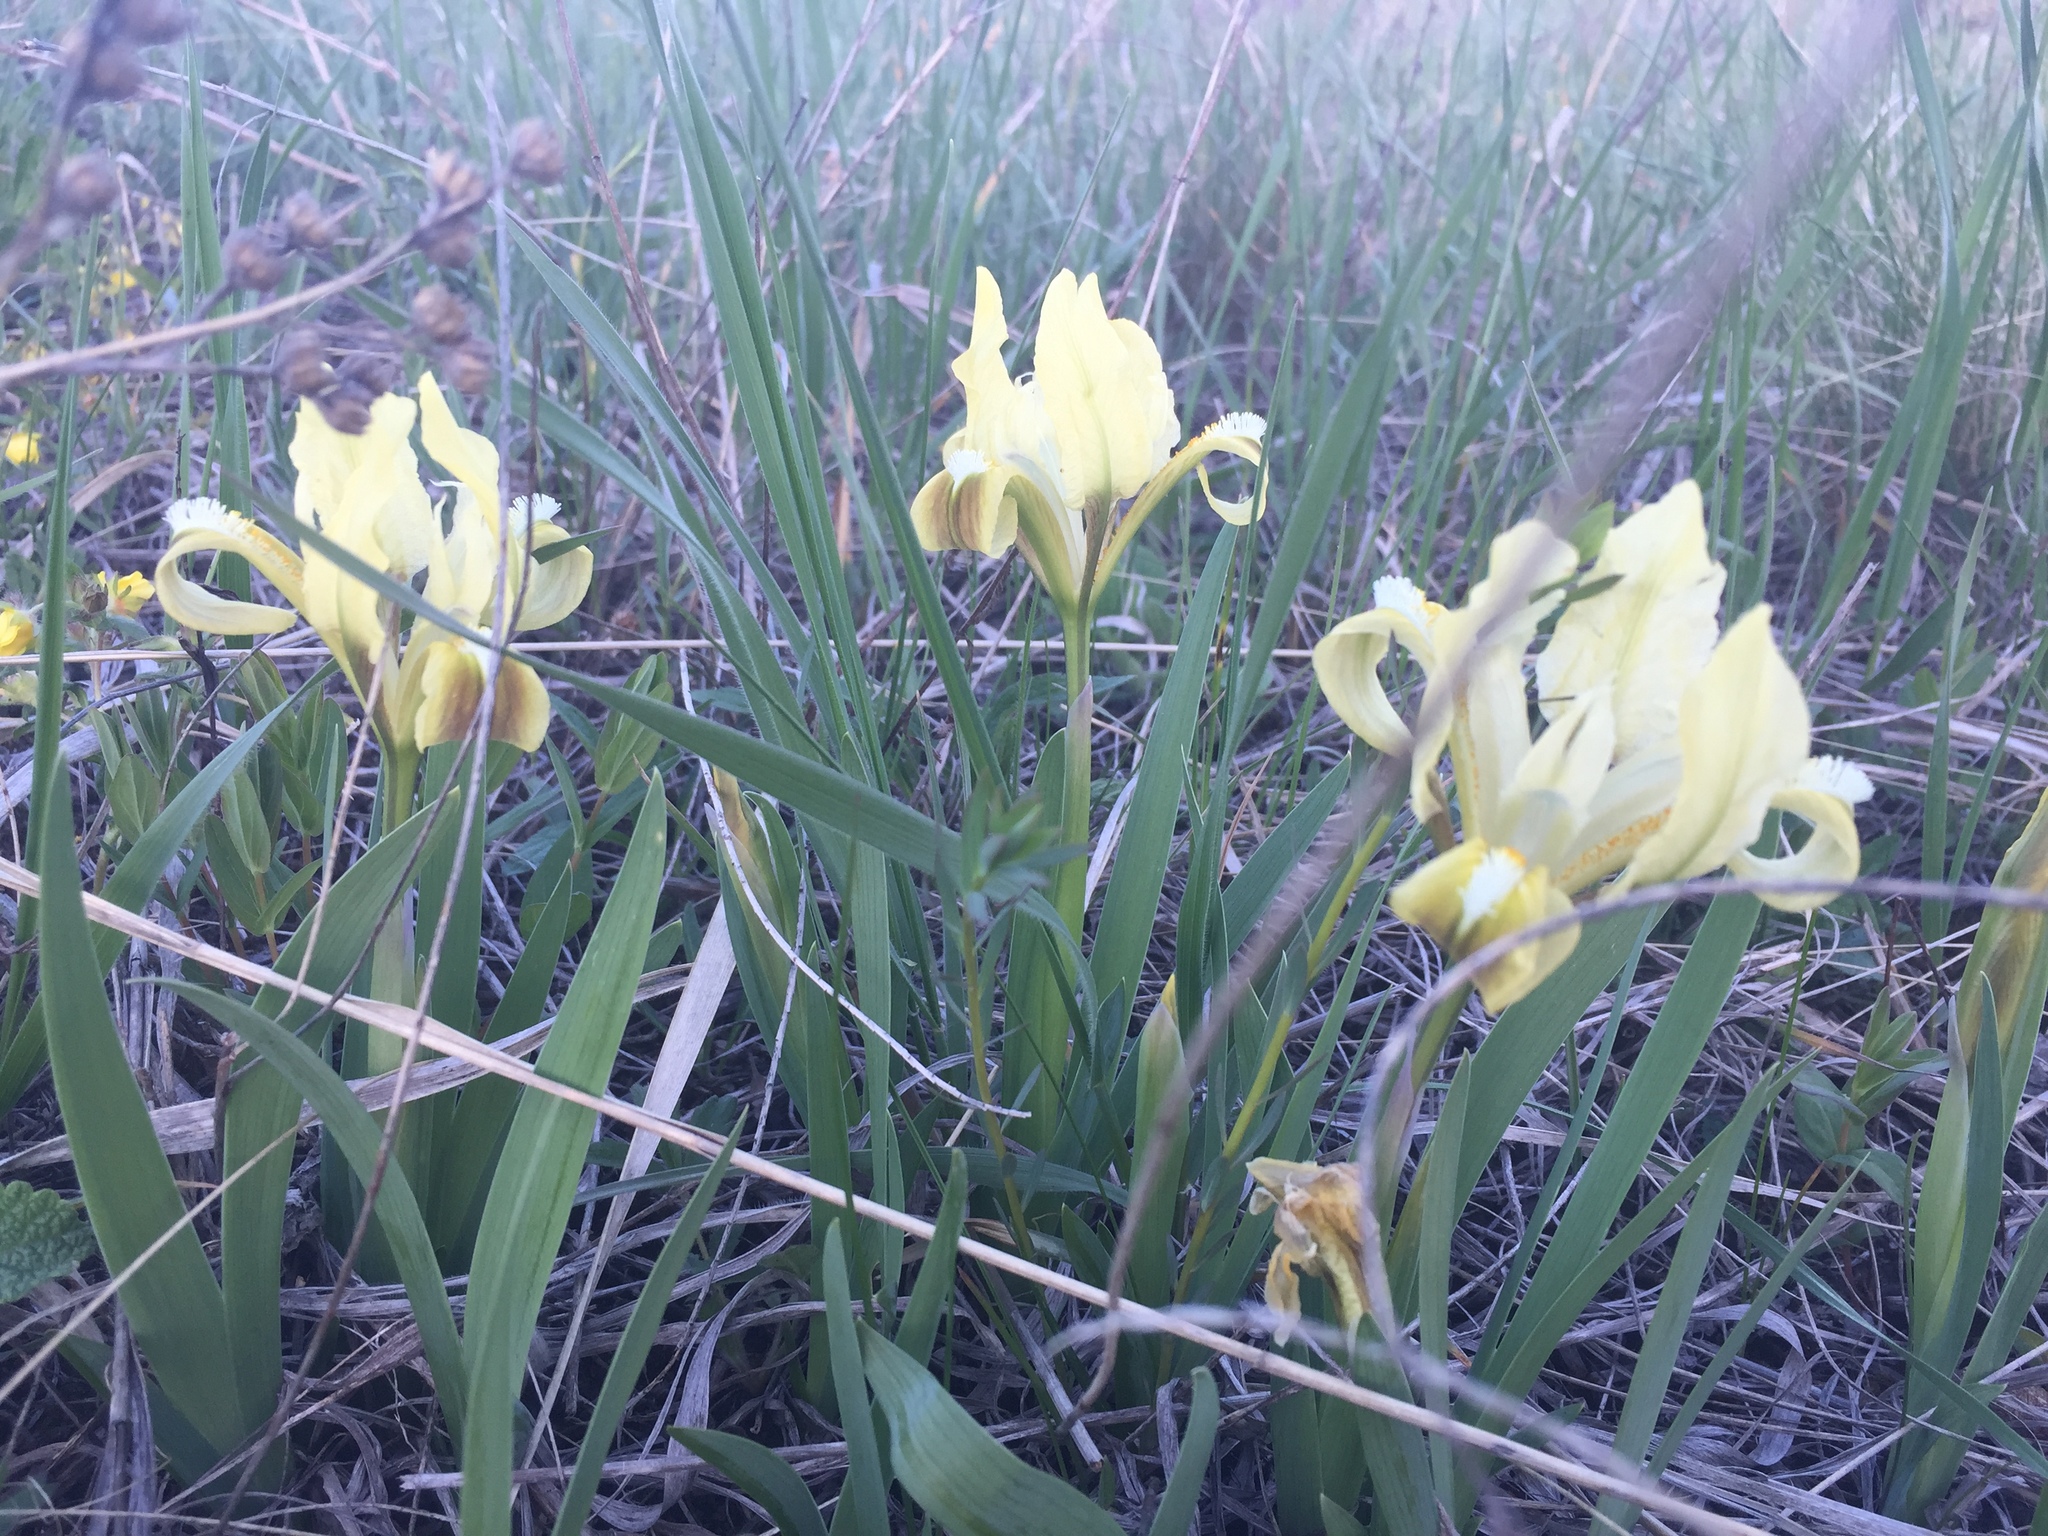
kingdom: Plantae
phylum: Tracheophyta
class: Liliopsida
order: Asparagales
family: Iridaceae
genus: Iris
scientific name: Iris pumila
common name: Dwarf iris
